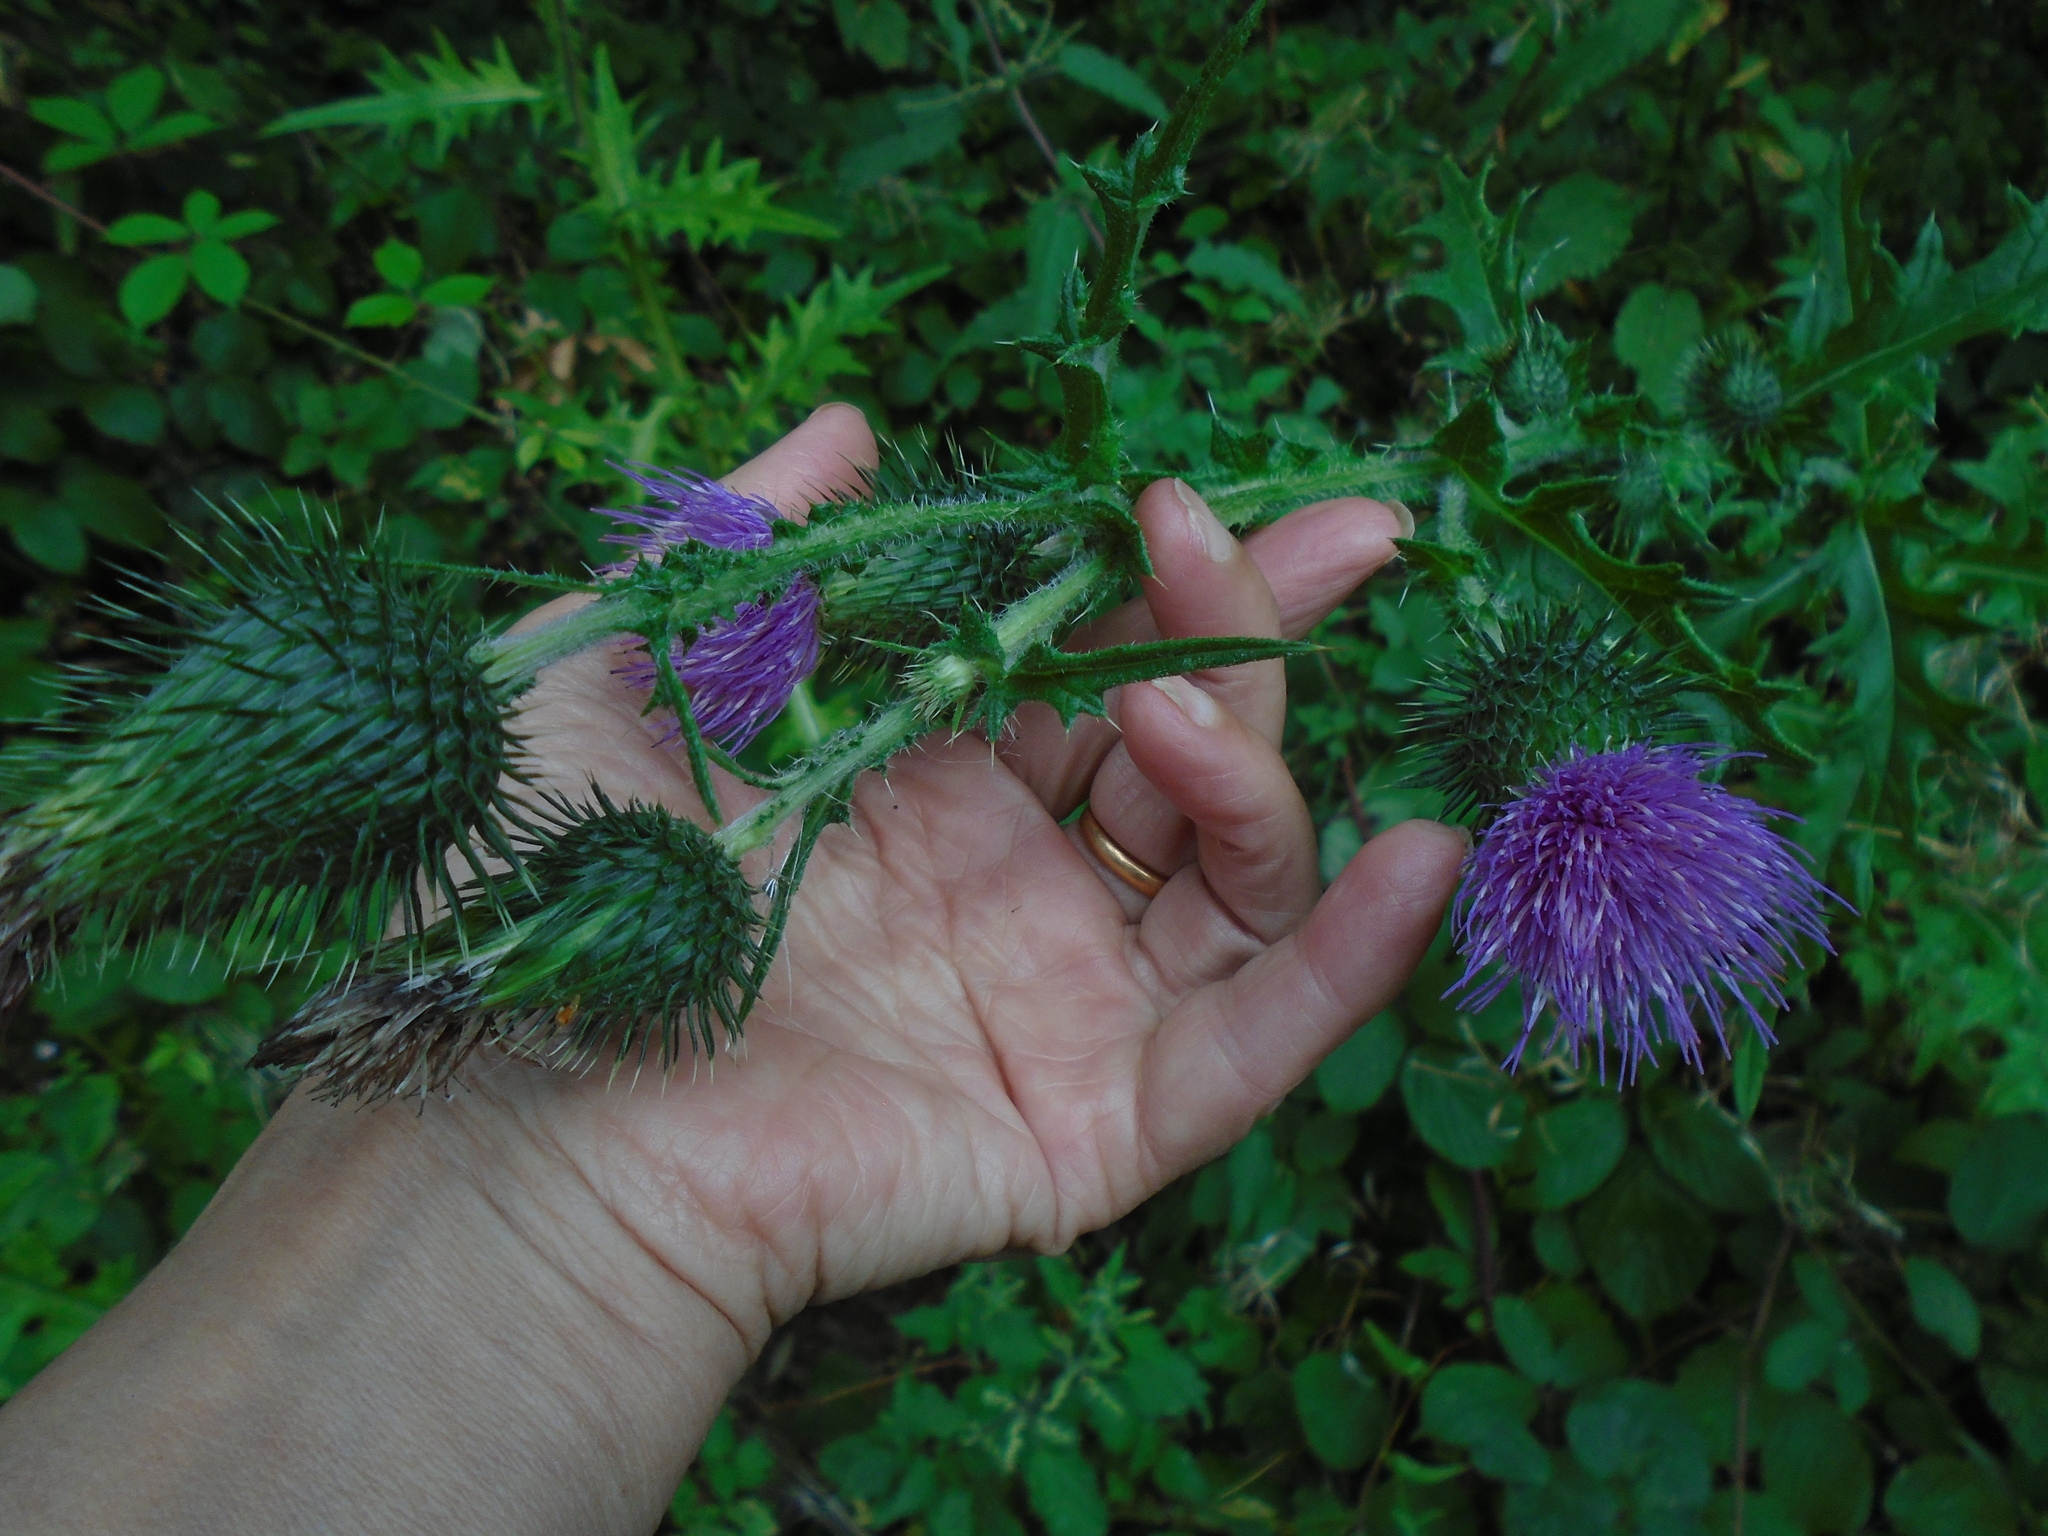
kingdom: Plantae
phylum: Tracheophyta
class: Magnoliopsida
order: Asterales
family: Asteraceae
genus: Cirsium
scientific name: Cirsium vulgare
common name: Bull thistle
